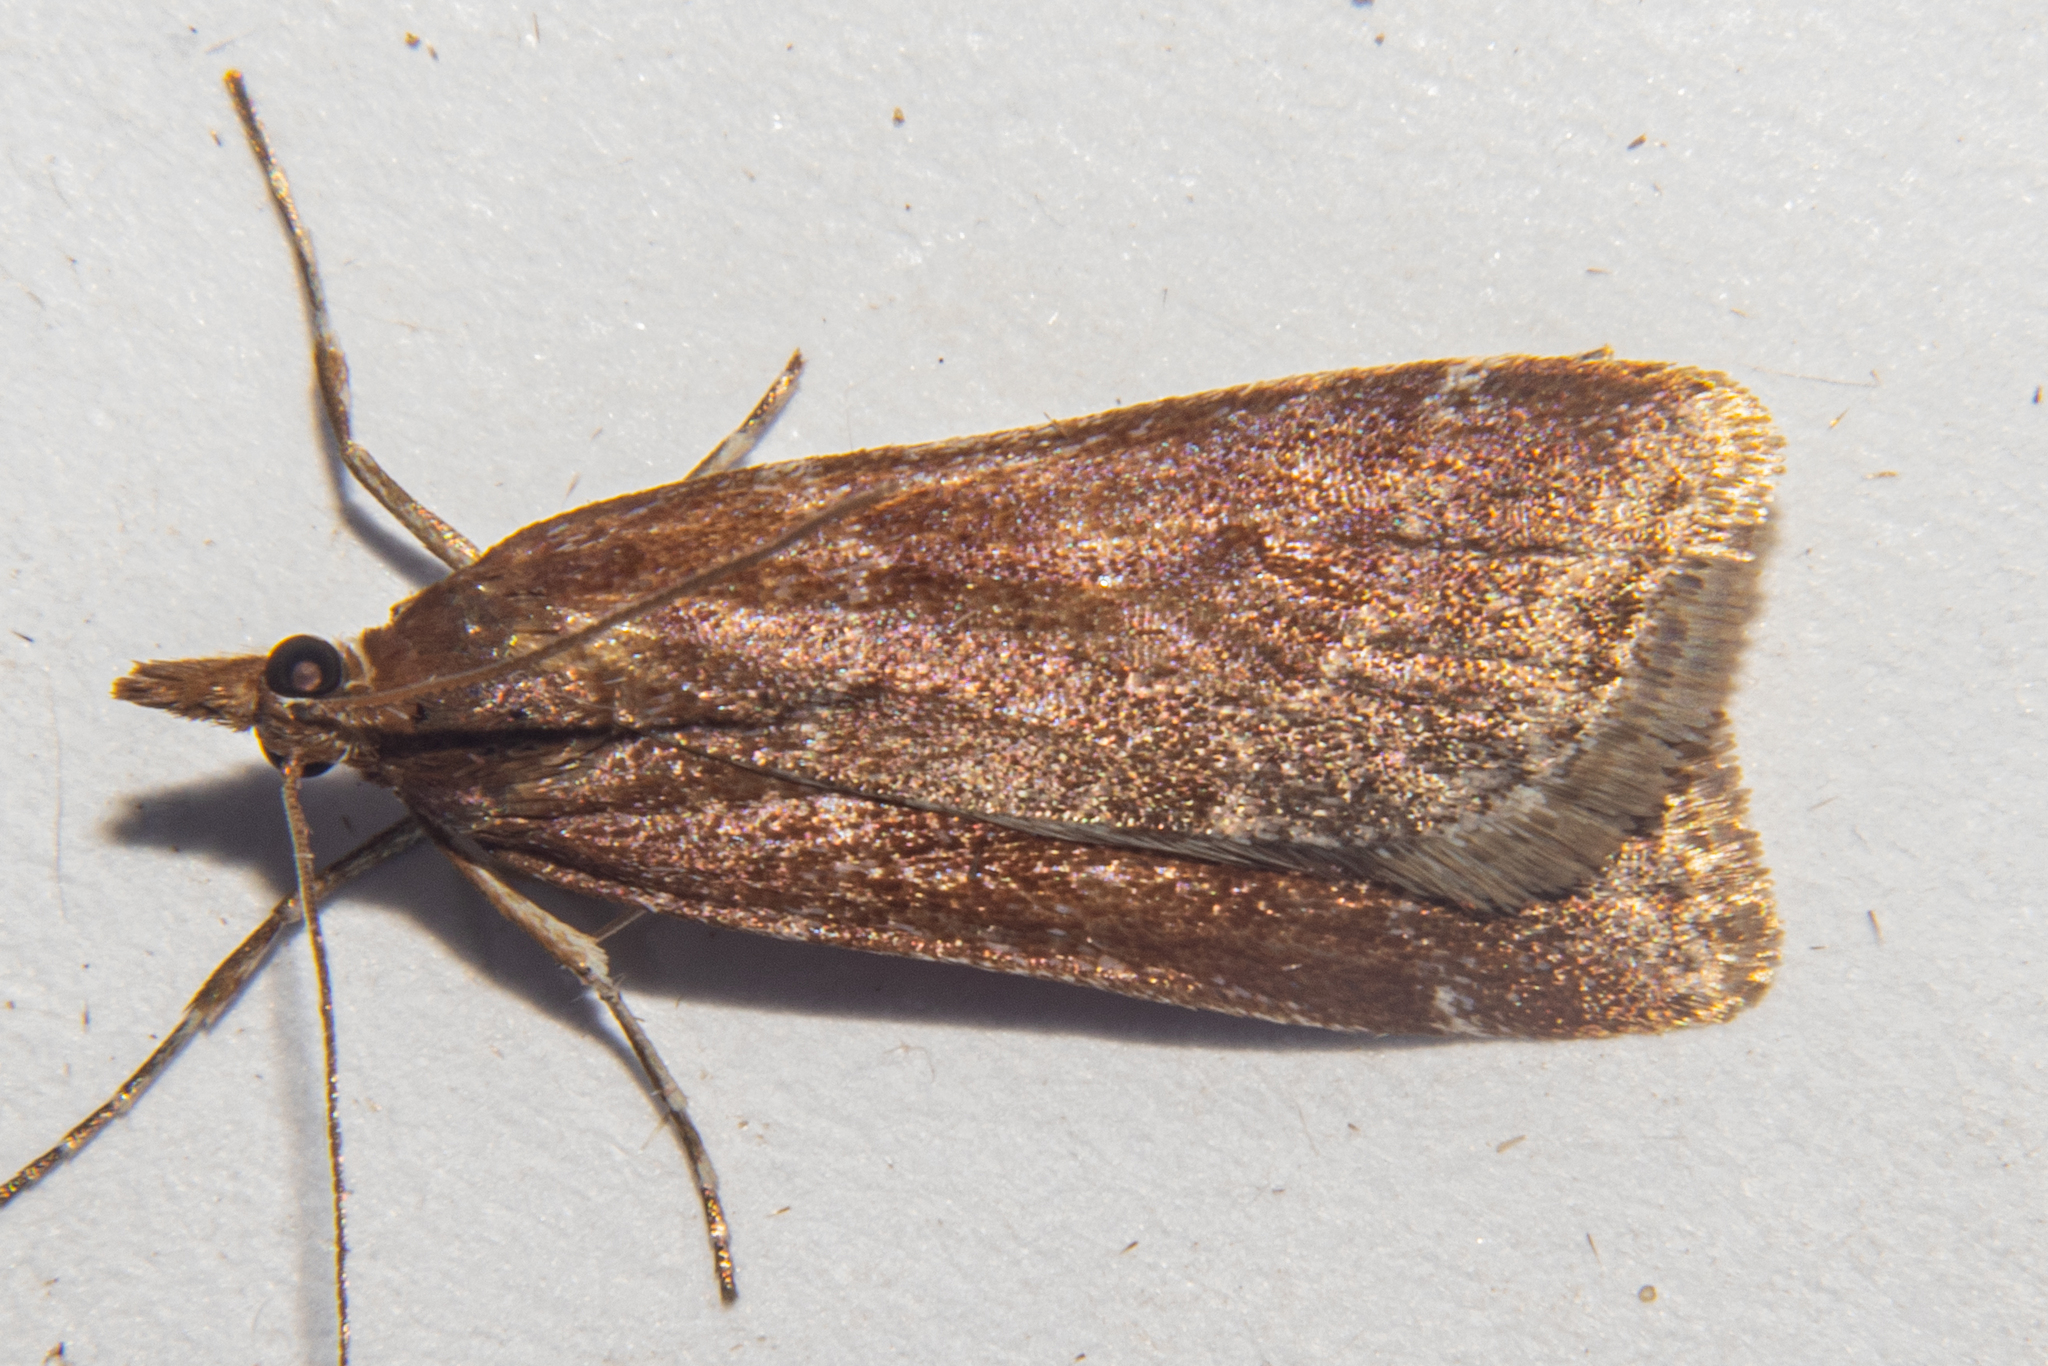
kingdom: Animalia
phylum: Arthropoda
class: Insecta
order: Lepidoptera
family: Crambidae
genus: Eudonia
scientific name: Eudonia feredayi
